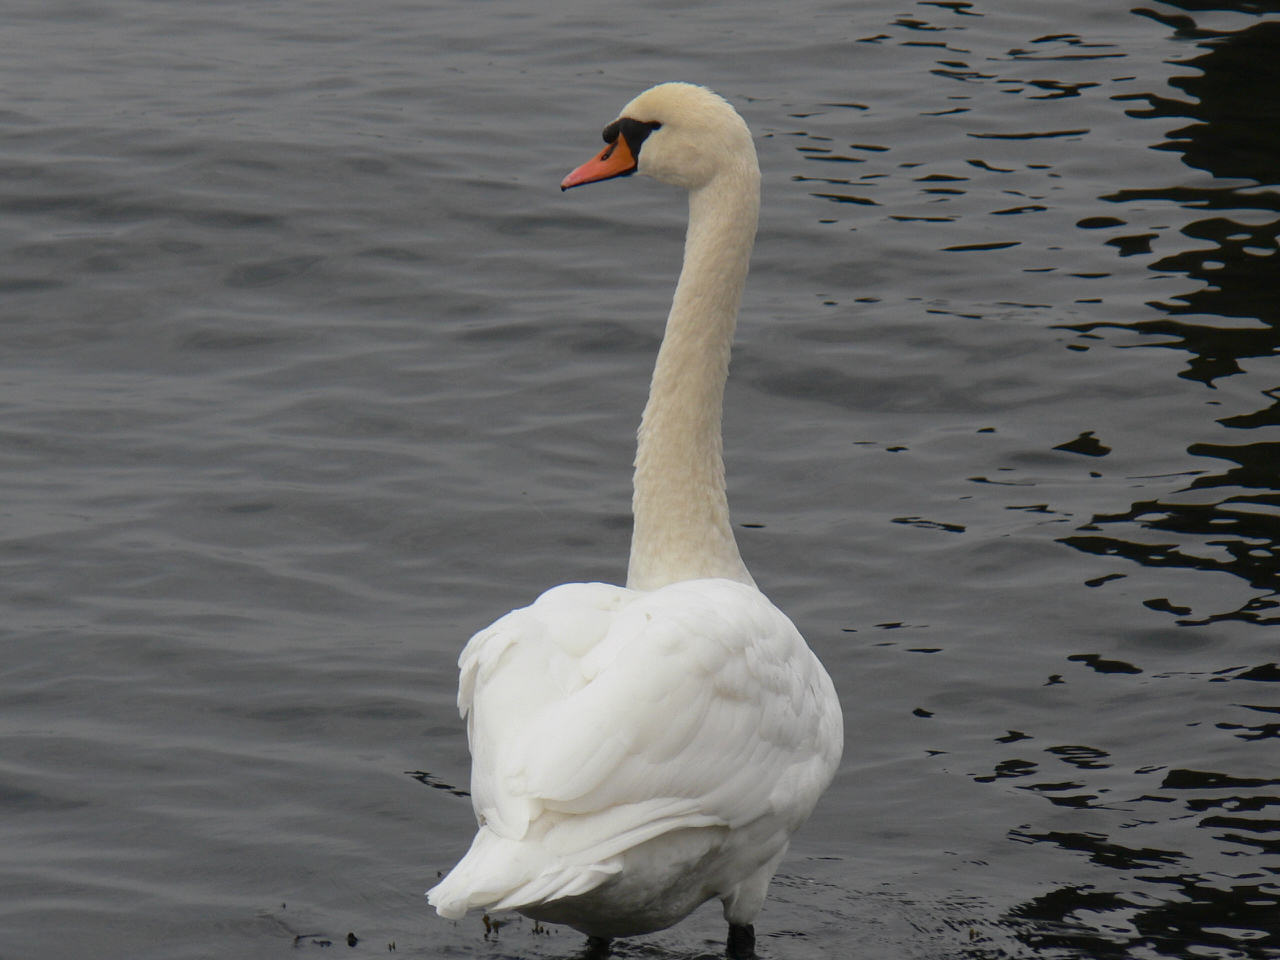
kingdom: Animalia
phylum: Chordata
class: Aves
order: Anseriformes
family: Anatidae
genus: Cygnus
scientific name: Cygnus olor
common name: Mute swan
